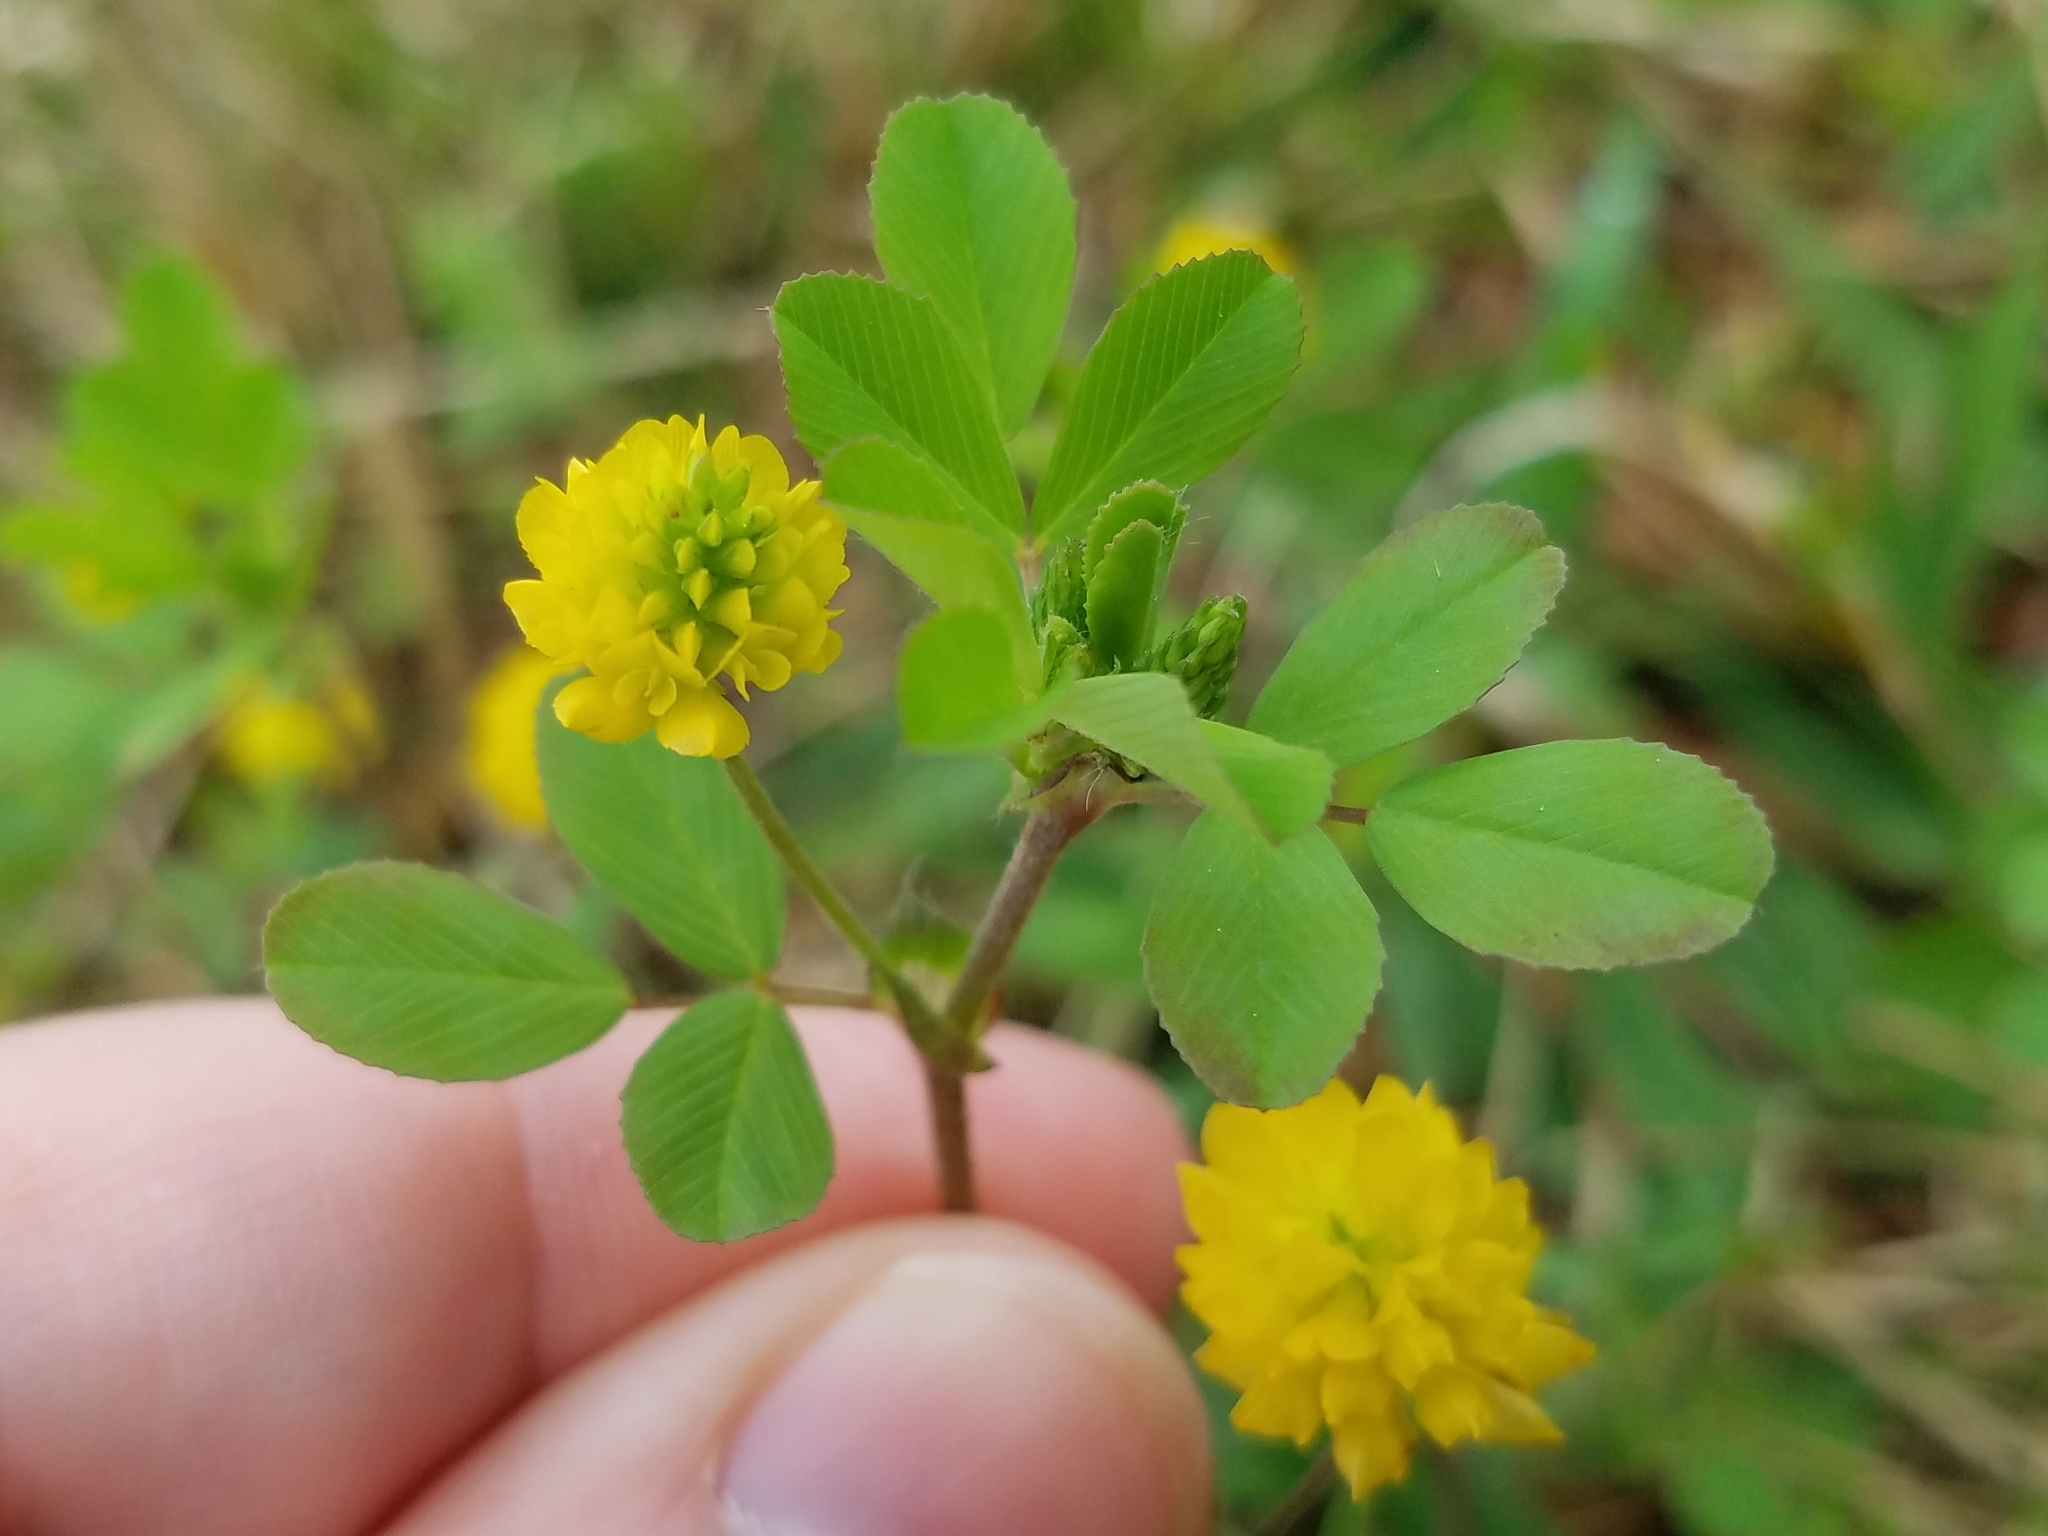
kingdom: Plantae
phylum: Tracheophyta
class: Magnoliopsida
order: Fabales
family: Fabaceae
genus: Trifolium
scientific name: Trifolium campestre
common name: Field clover
